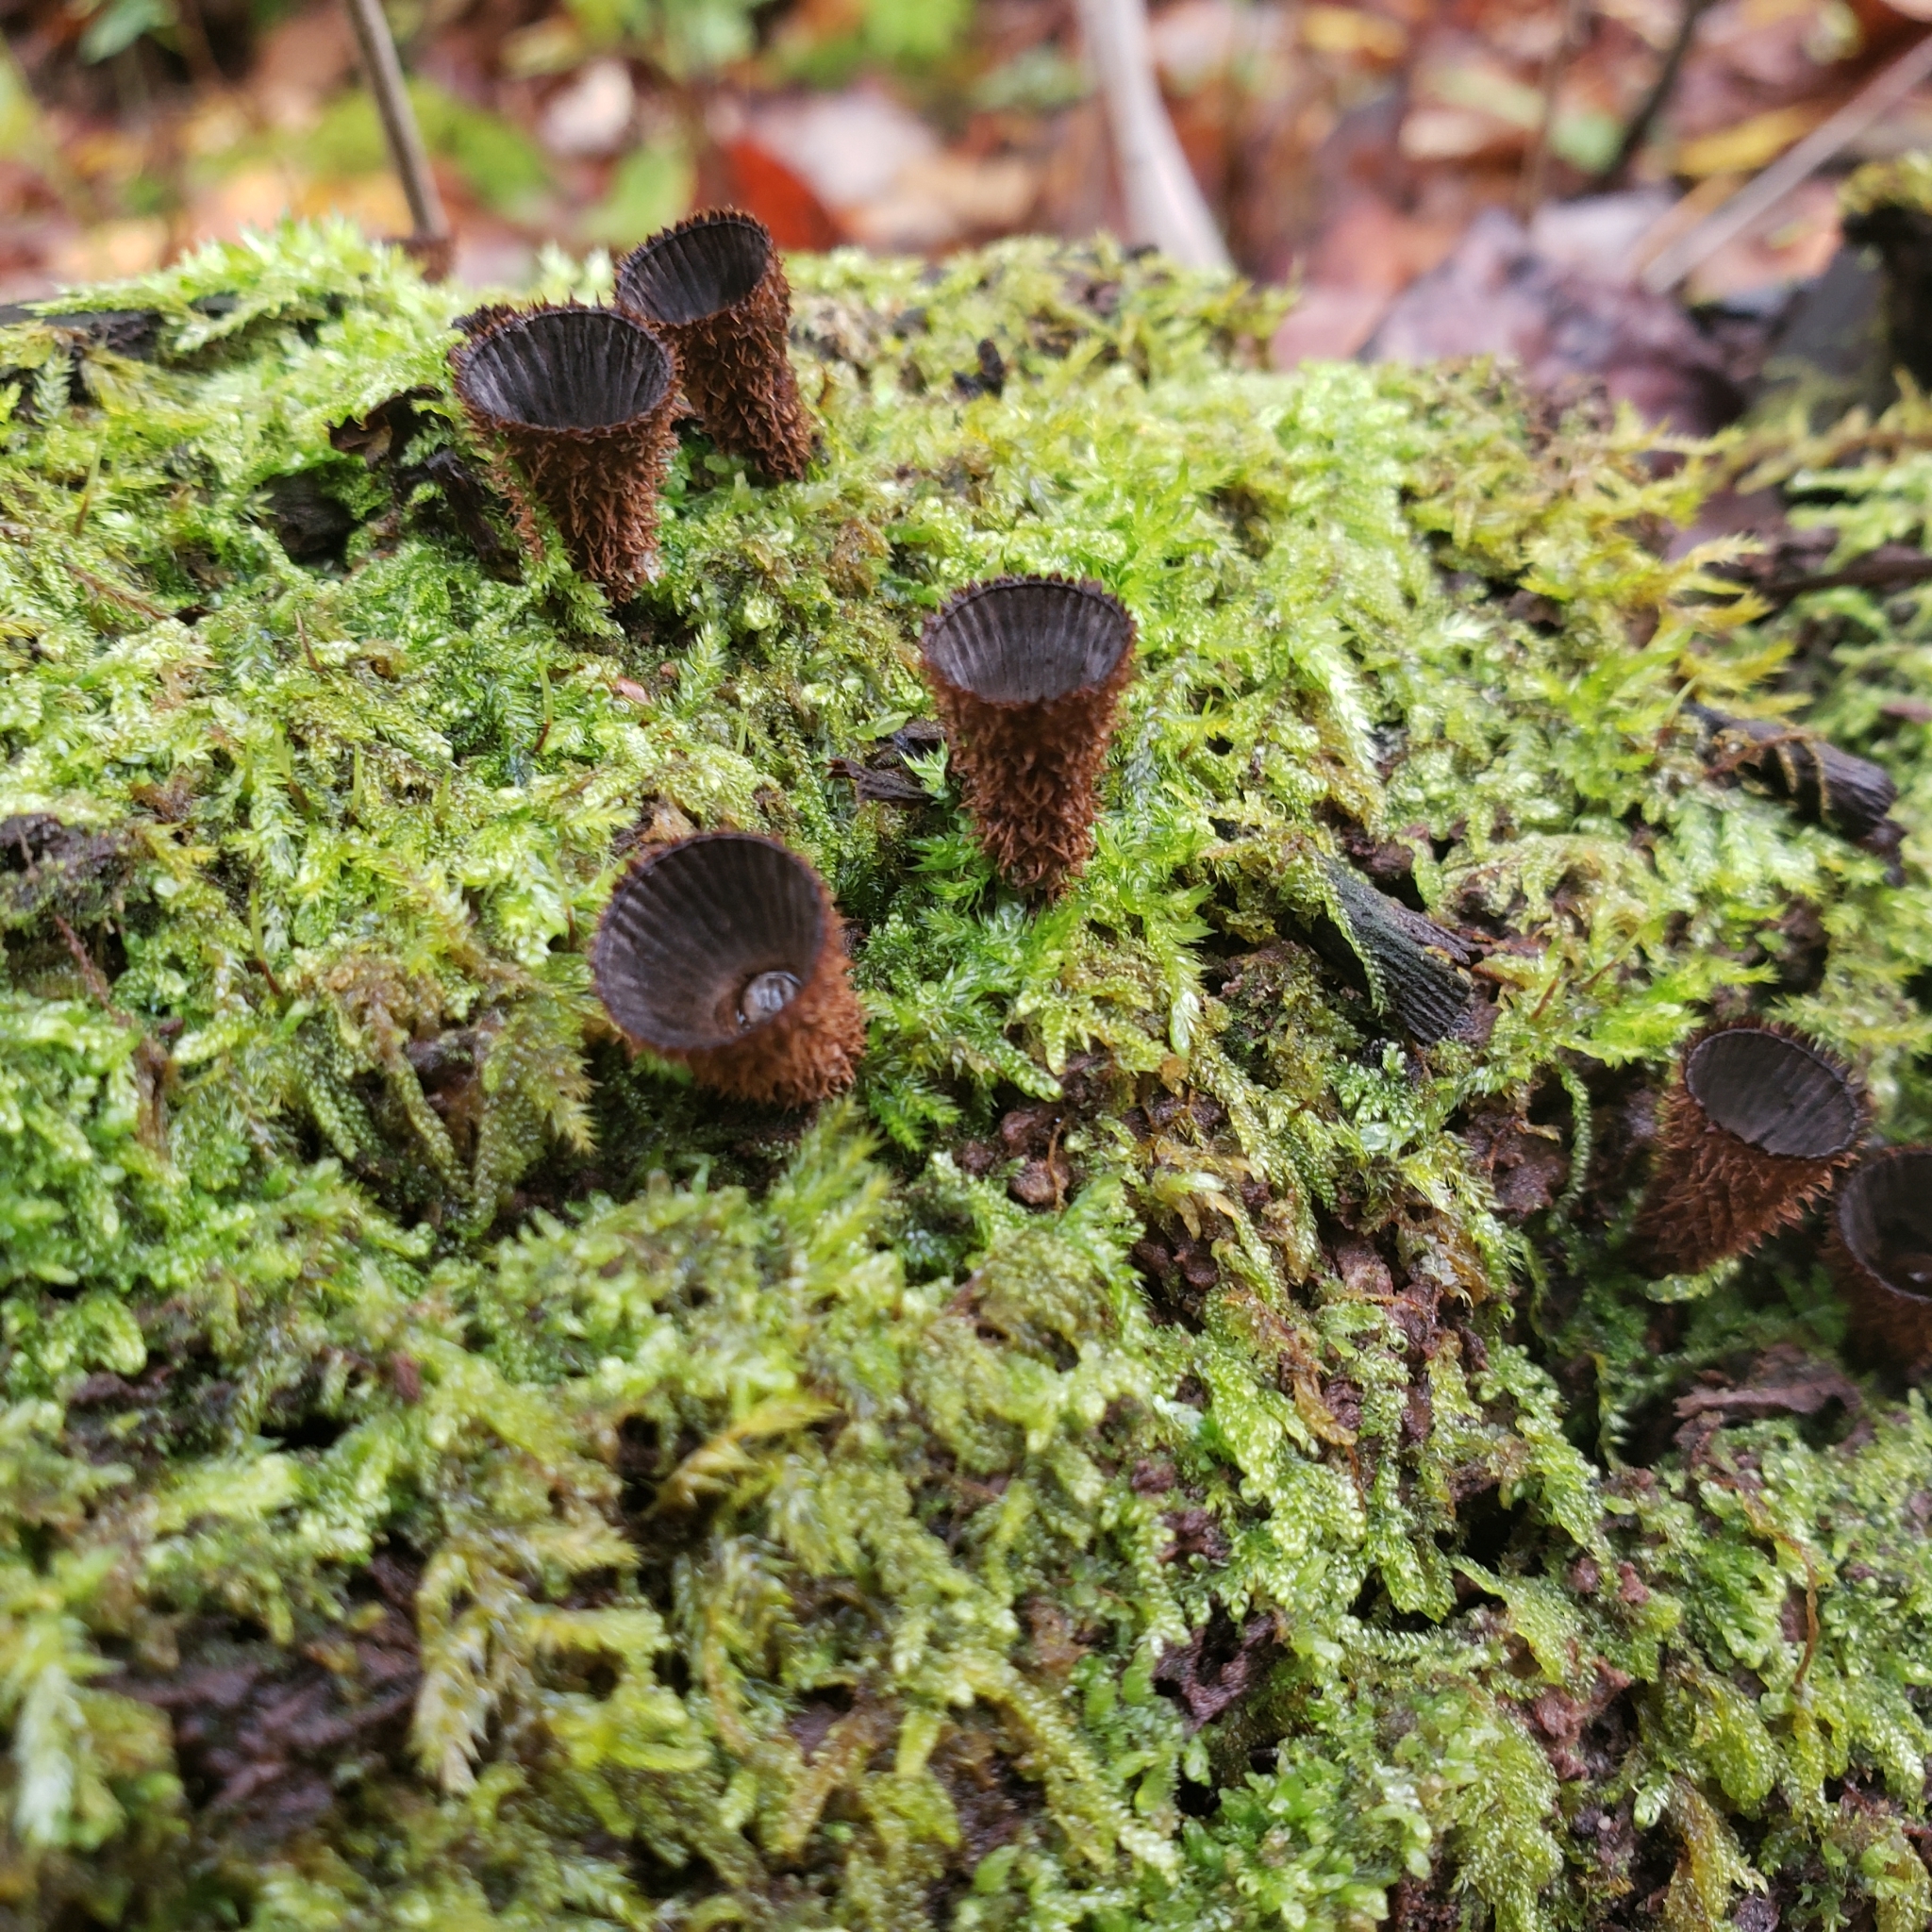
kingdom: Fungi
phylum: Basidiomycota
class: Agaricomycetes
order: Agaricales
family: Agaricaceae
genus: Cyathus
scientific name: Cyathus striatus
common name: Fluted bird's nest
